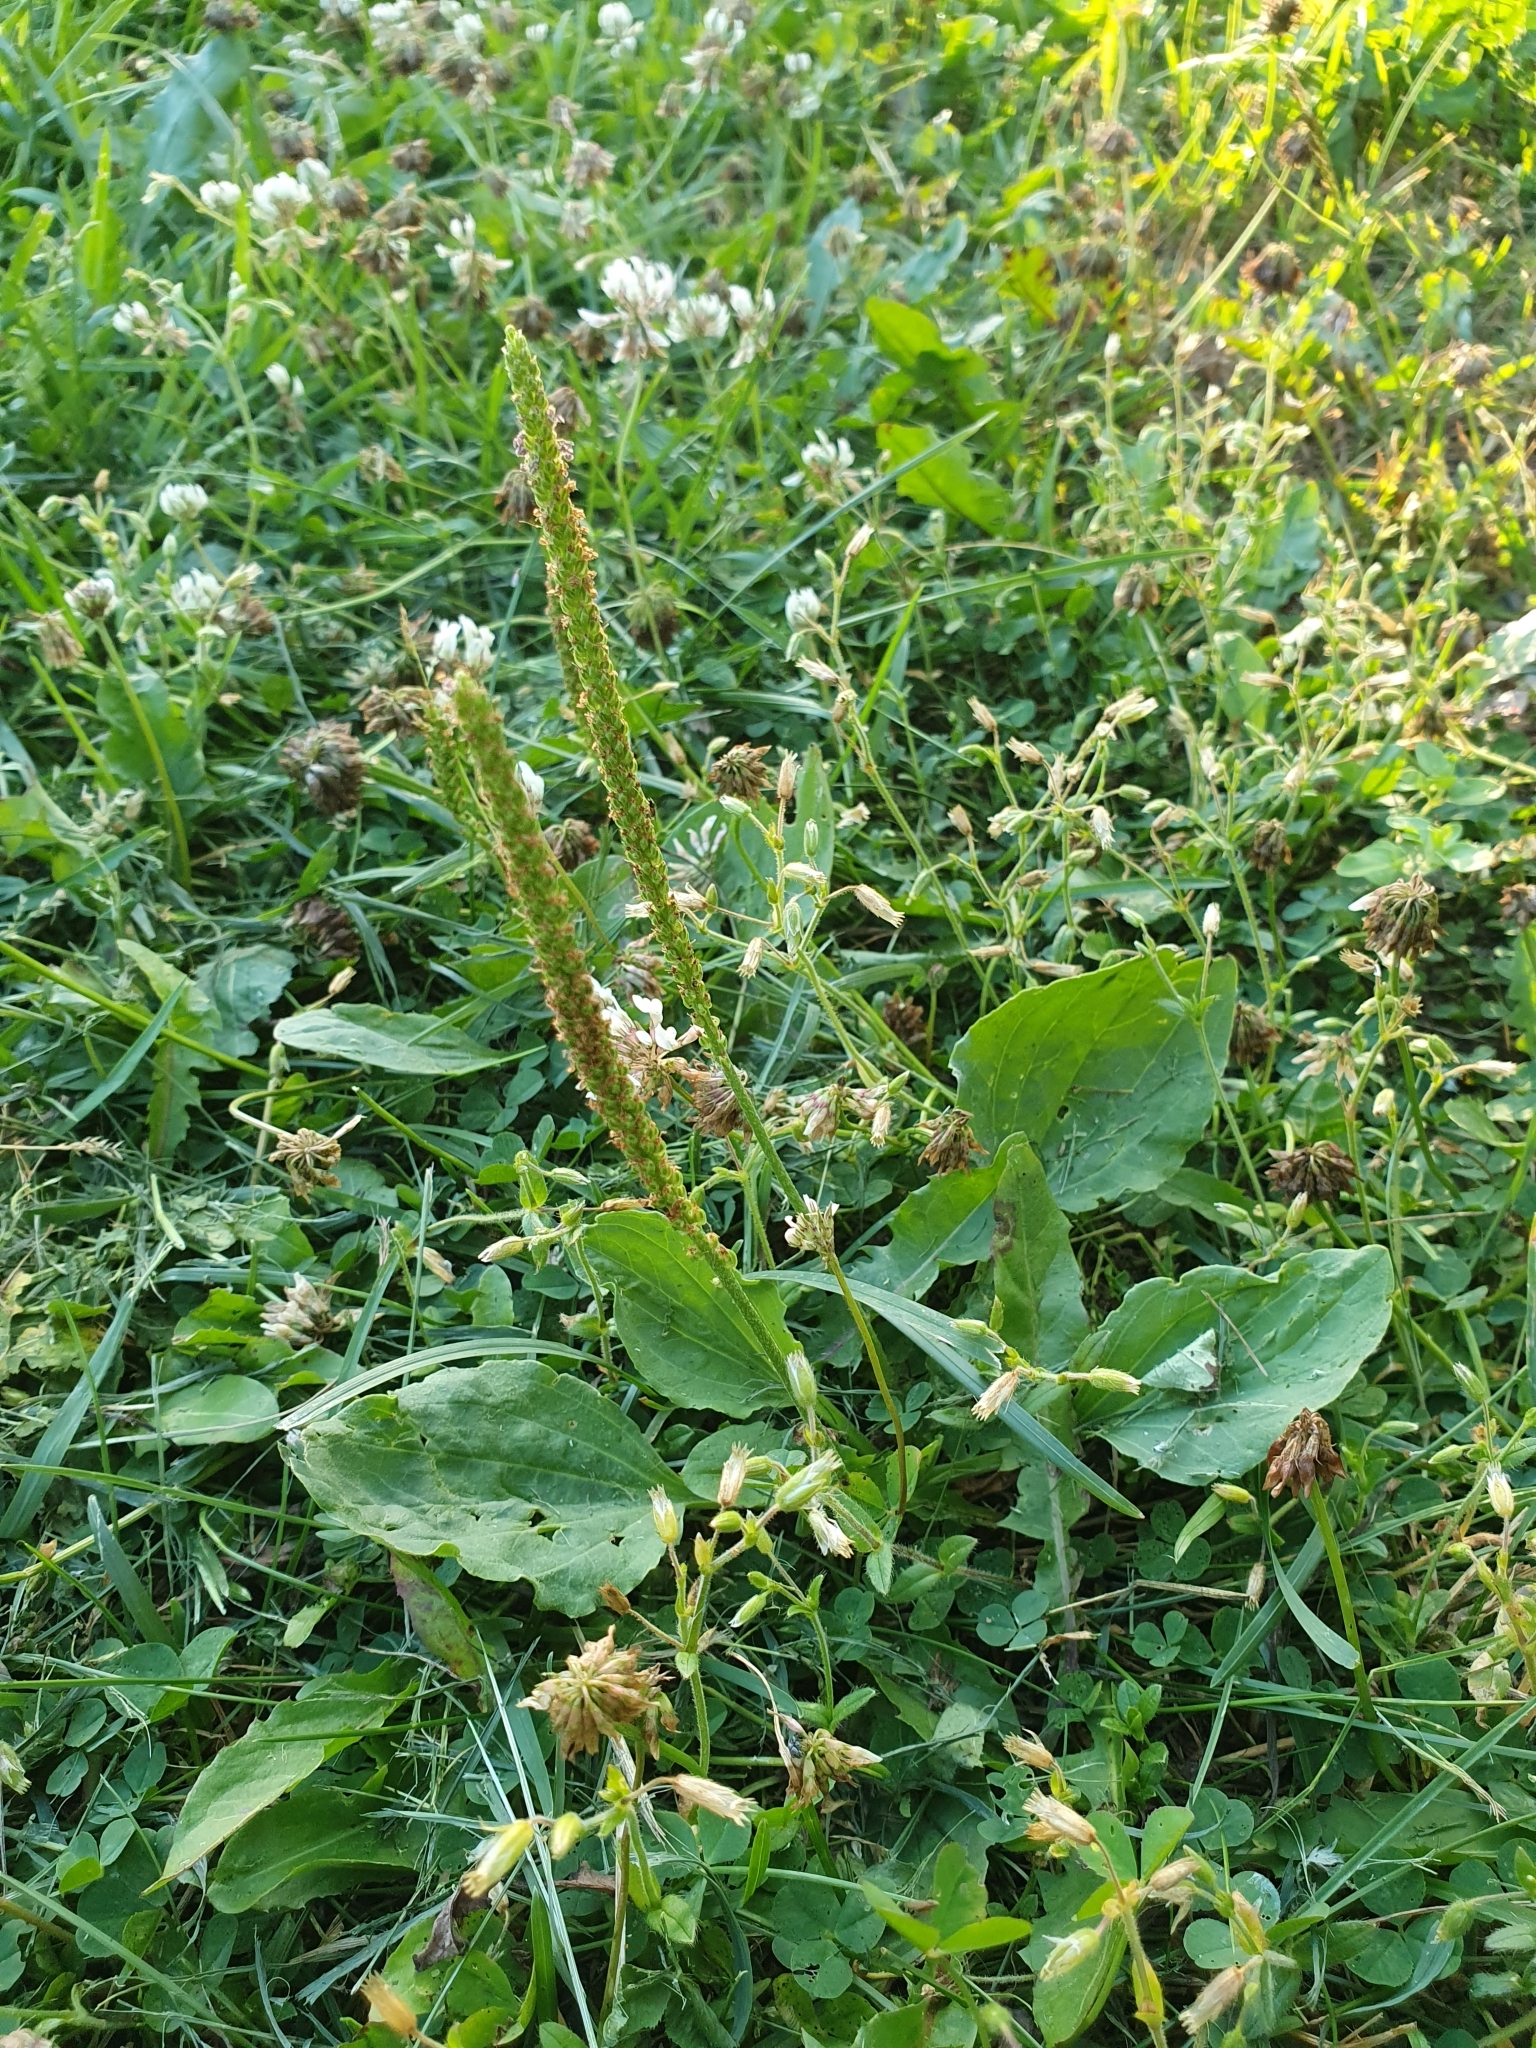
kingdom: Plantae
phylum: Tracheophyta
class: Magnoliopsida
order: Lamiales
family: Plantaginaceae
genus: Plantago
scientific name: Plantago major
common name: Common plantain
